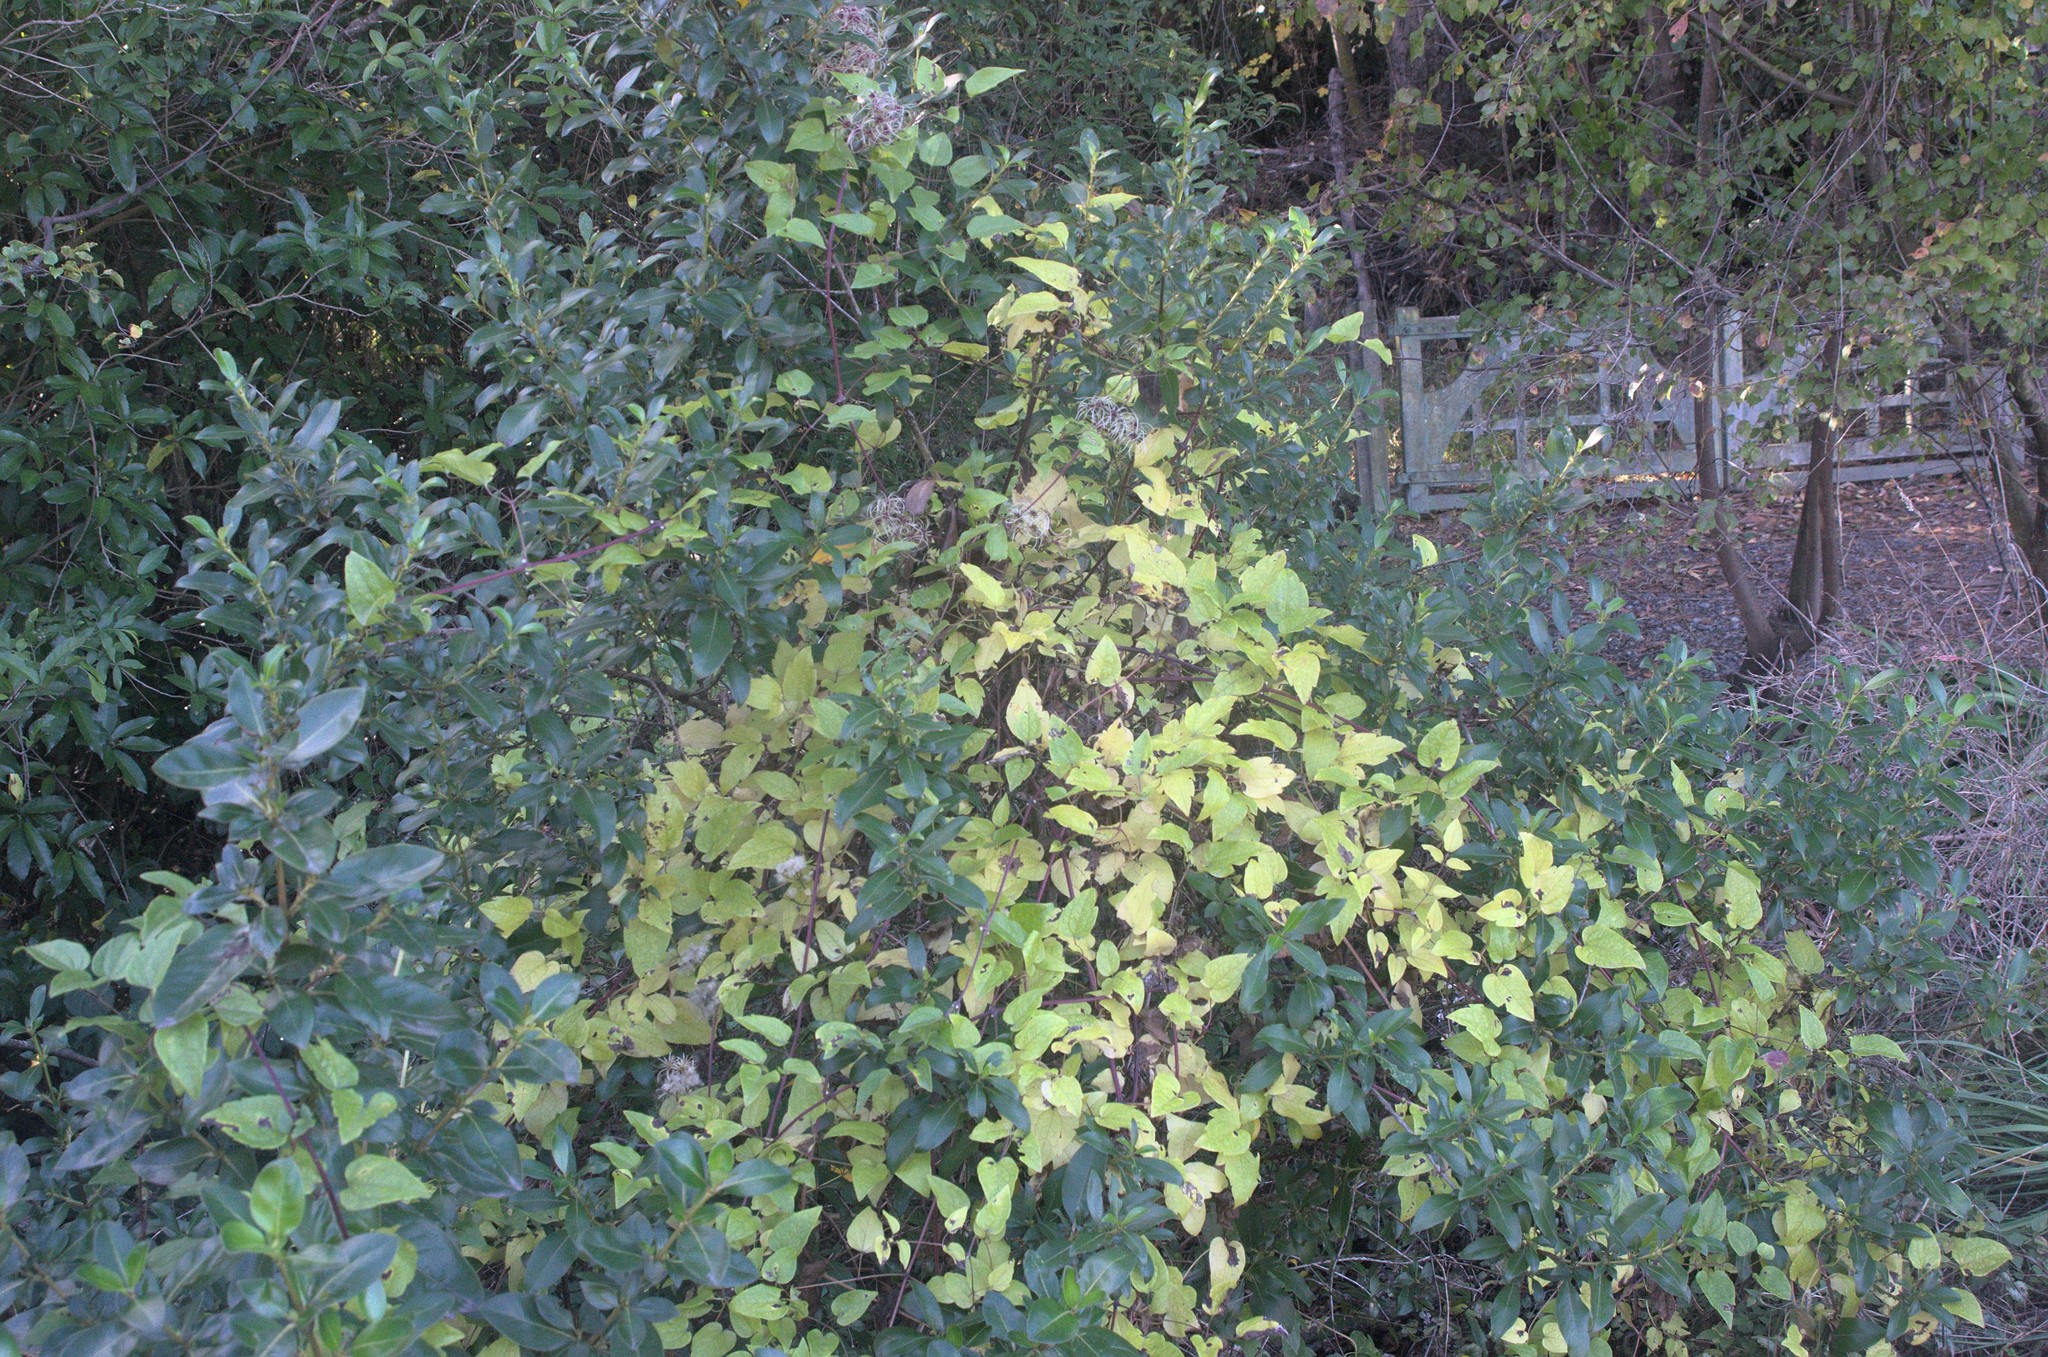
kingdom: Plantae
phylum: Tracheophyta
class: Magnoliopsida
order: Ranunculales
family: Ranunculaceae
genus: Clematis
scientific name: Clematis vitalba
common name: Evergreen clematis
